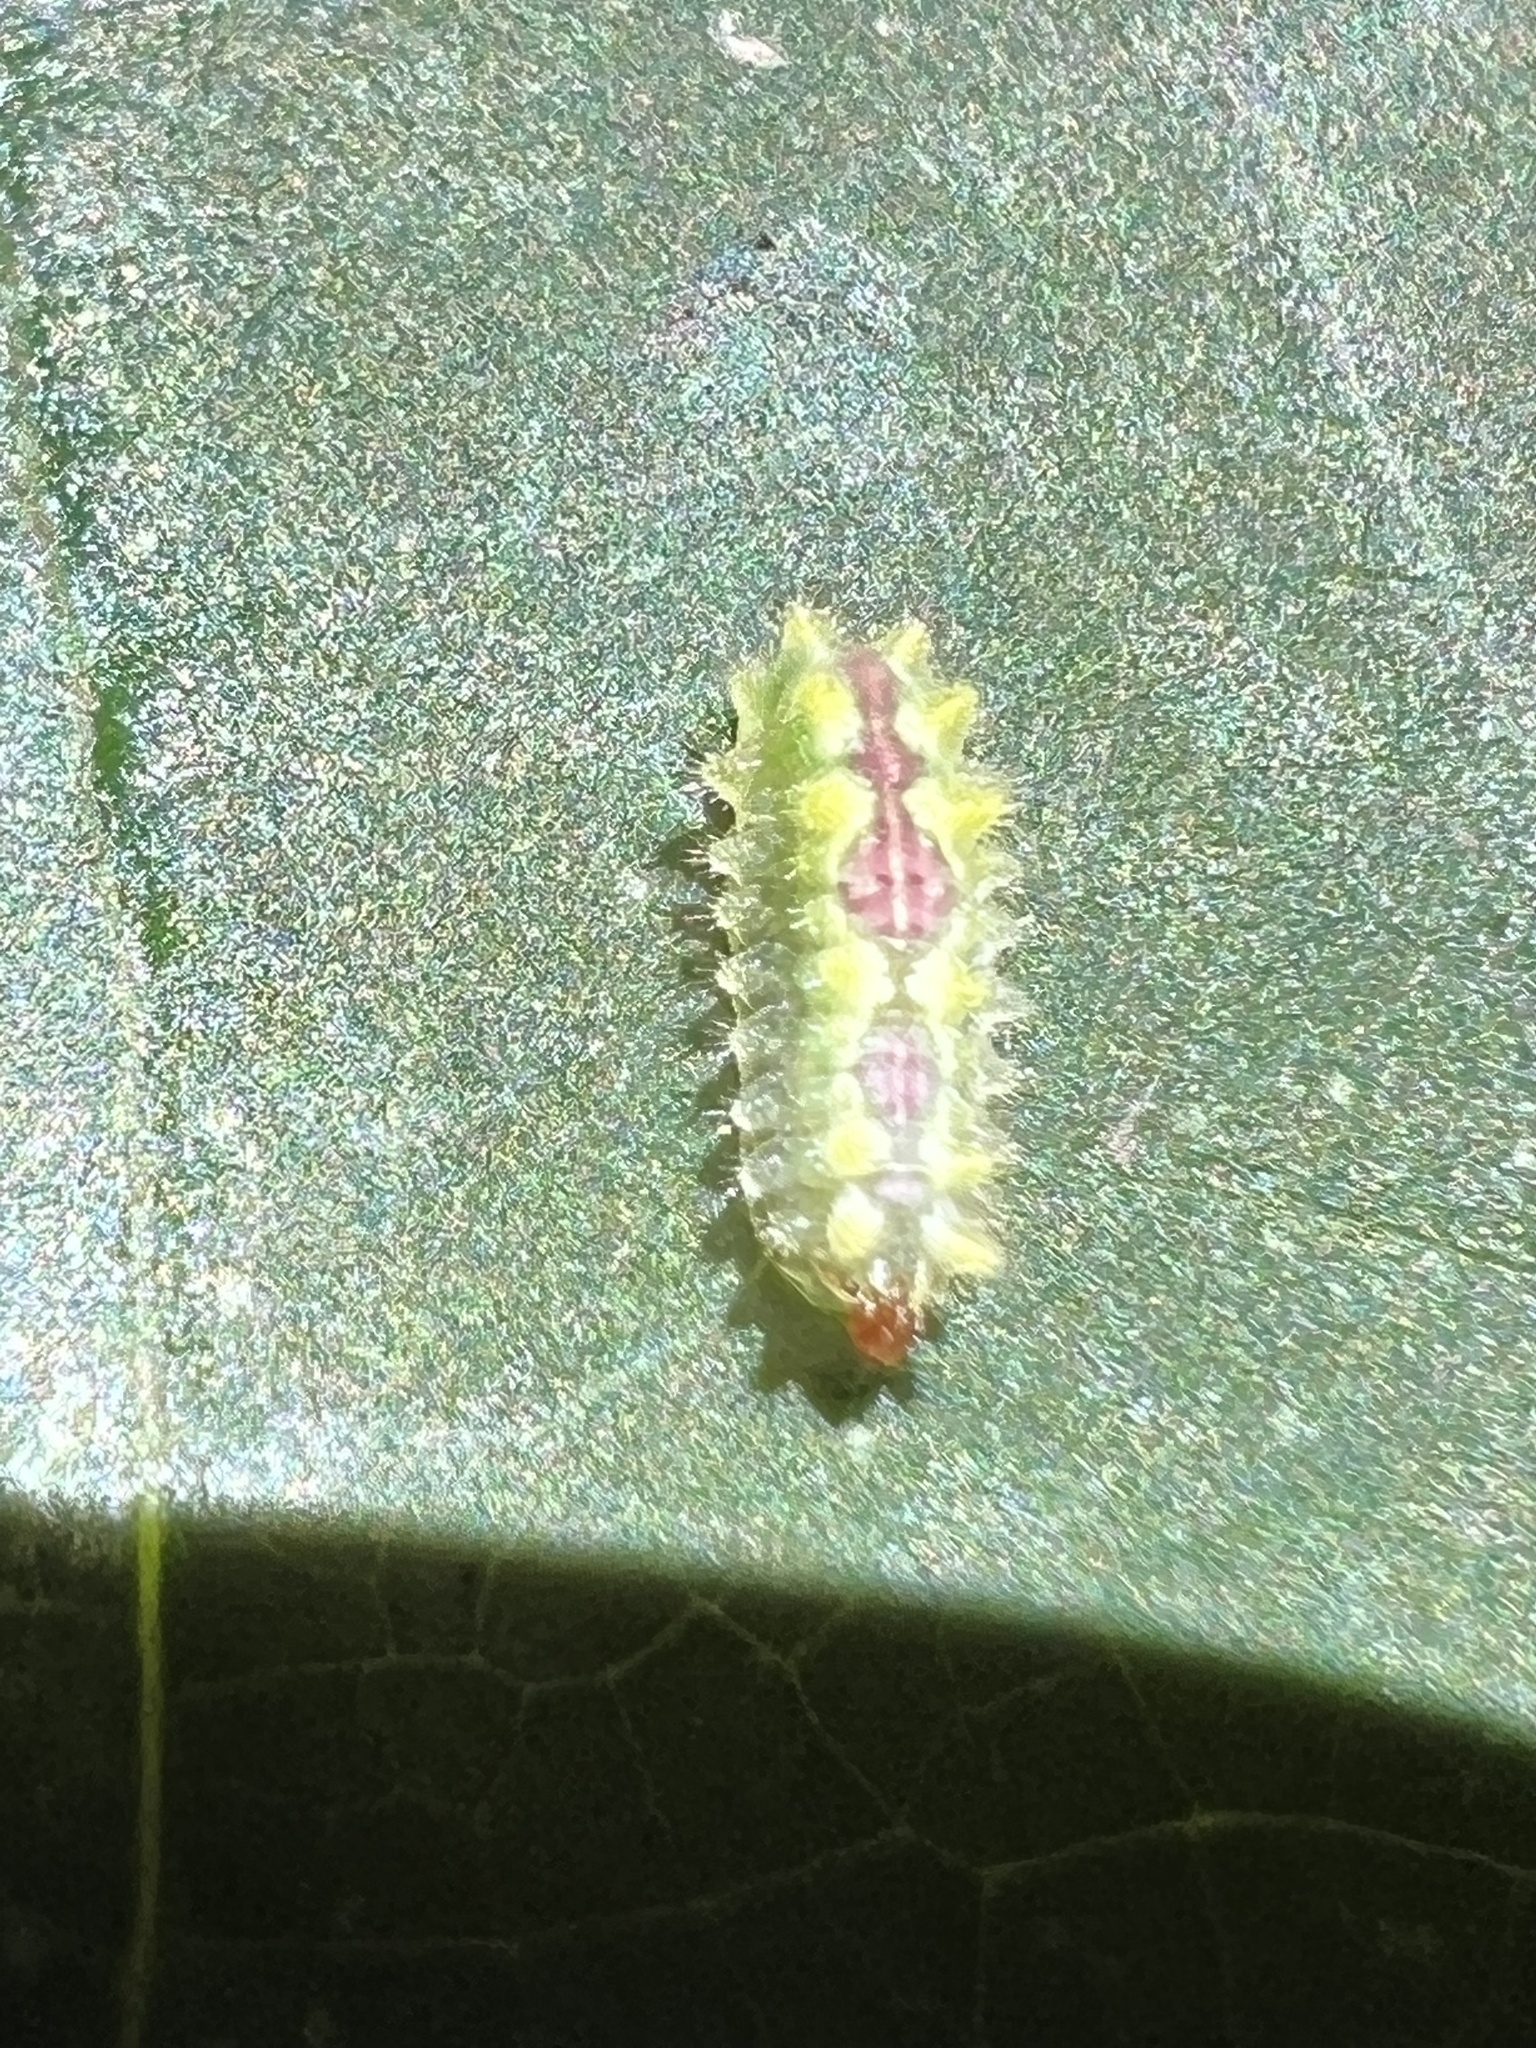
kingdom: Animalia
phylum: Arthropoda
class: Insecta
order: Lepidoptera
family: Limacodidae
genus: Adoneta
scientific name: Adoneta spinuloides
